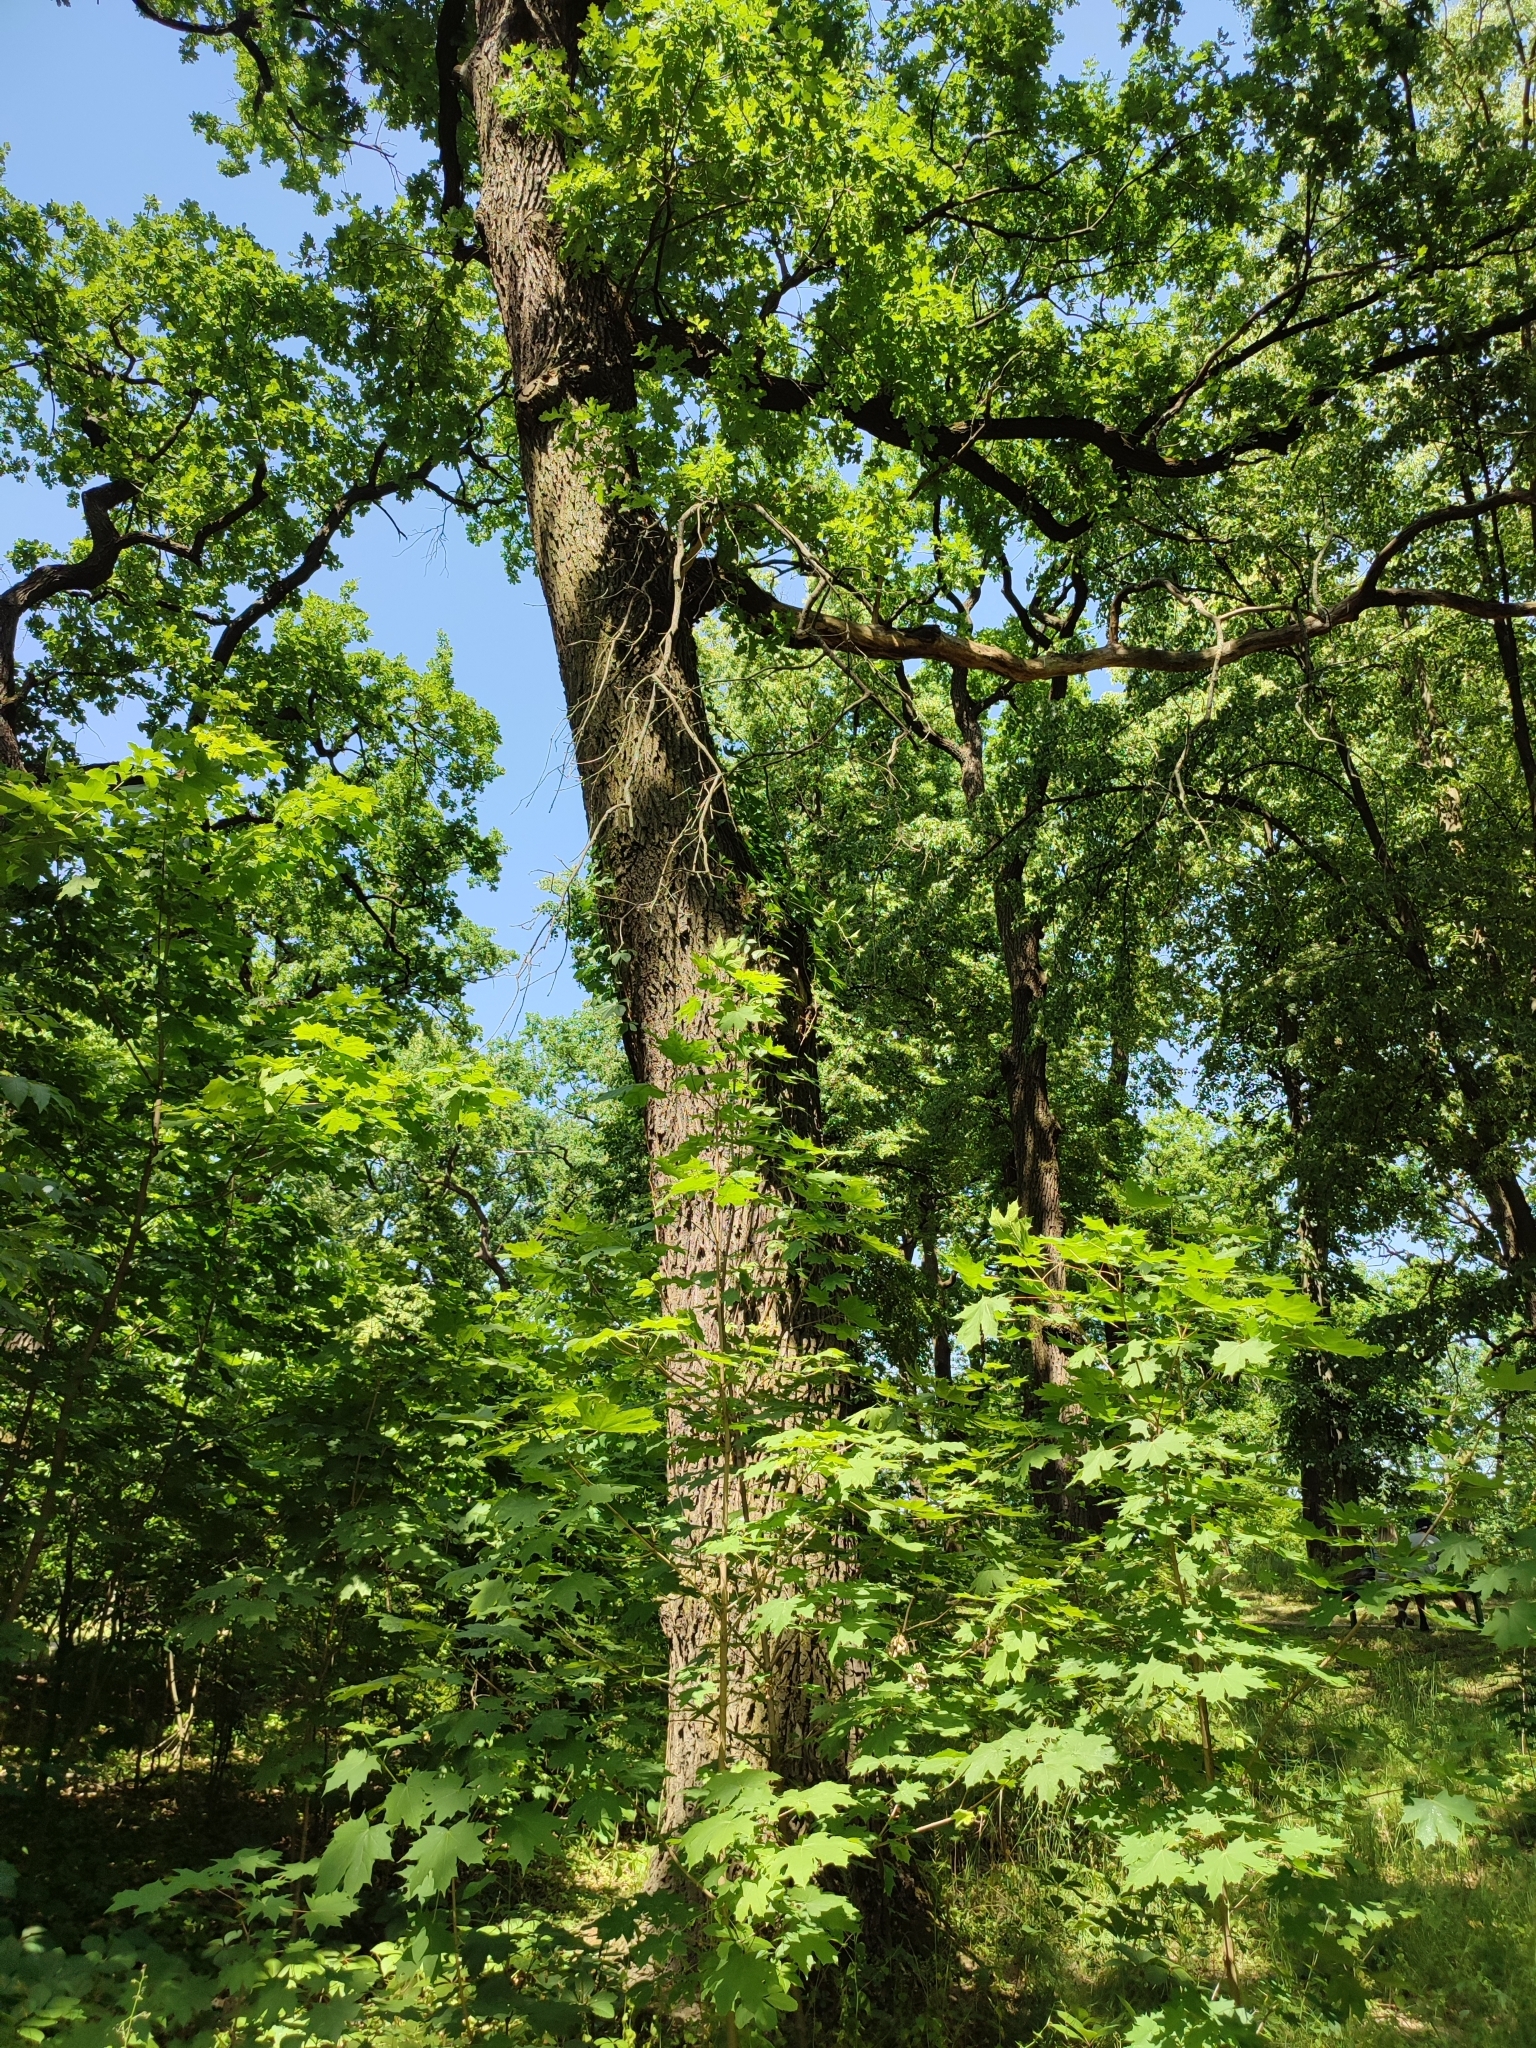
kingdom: Plantae
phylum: Tracheophyta
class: Magnoliopsida
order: Fagales
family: Fagaceae
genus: Quercus
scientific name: Quercus robur
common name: Pedunculate oak
